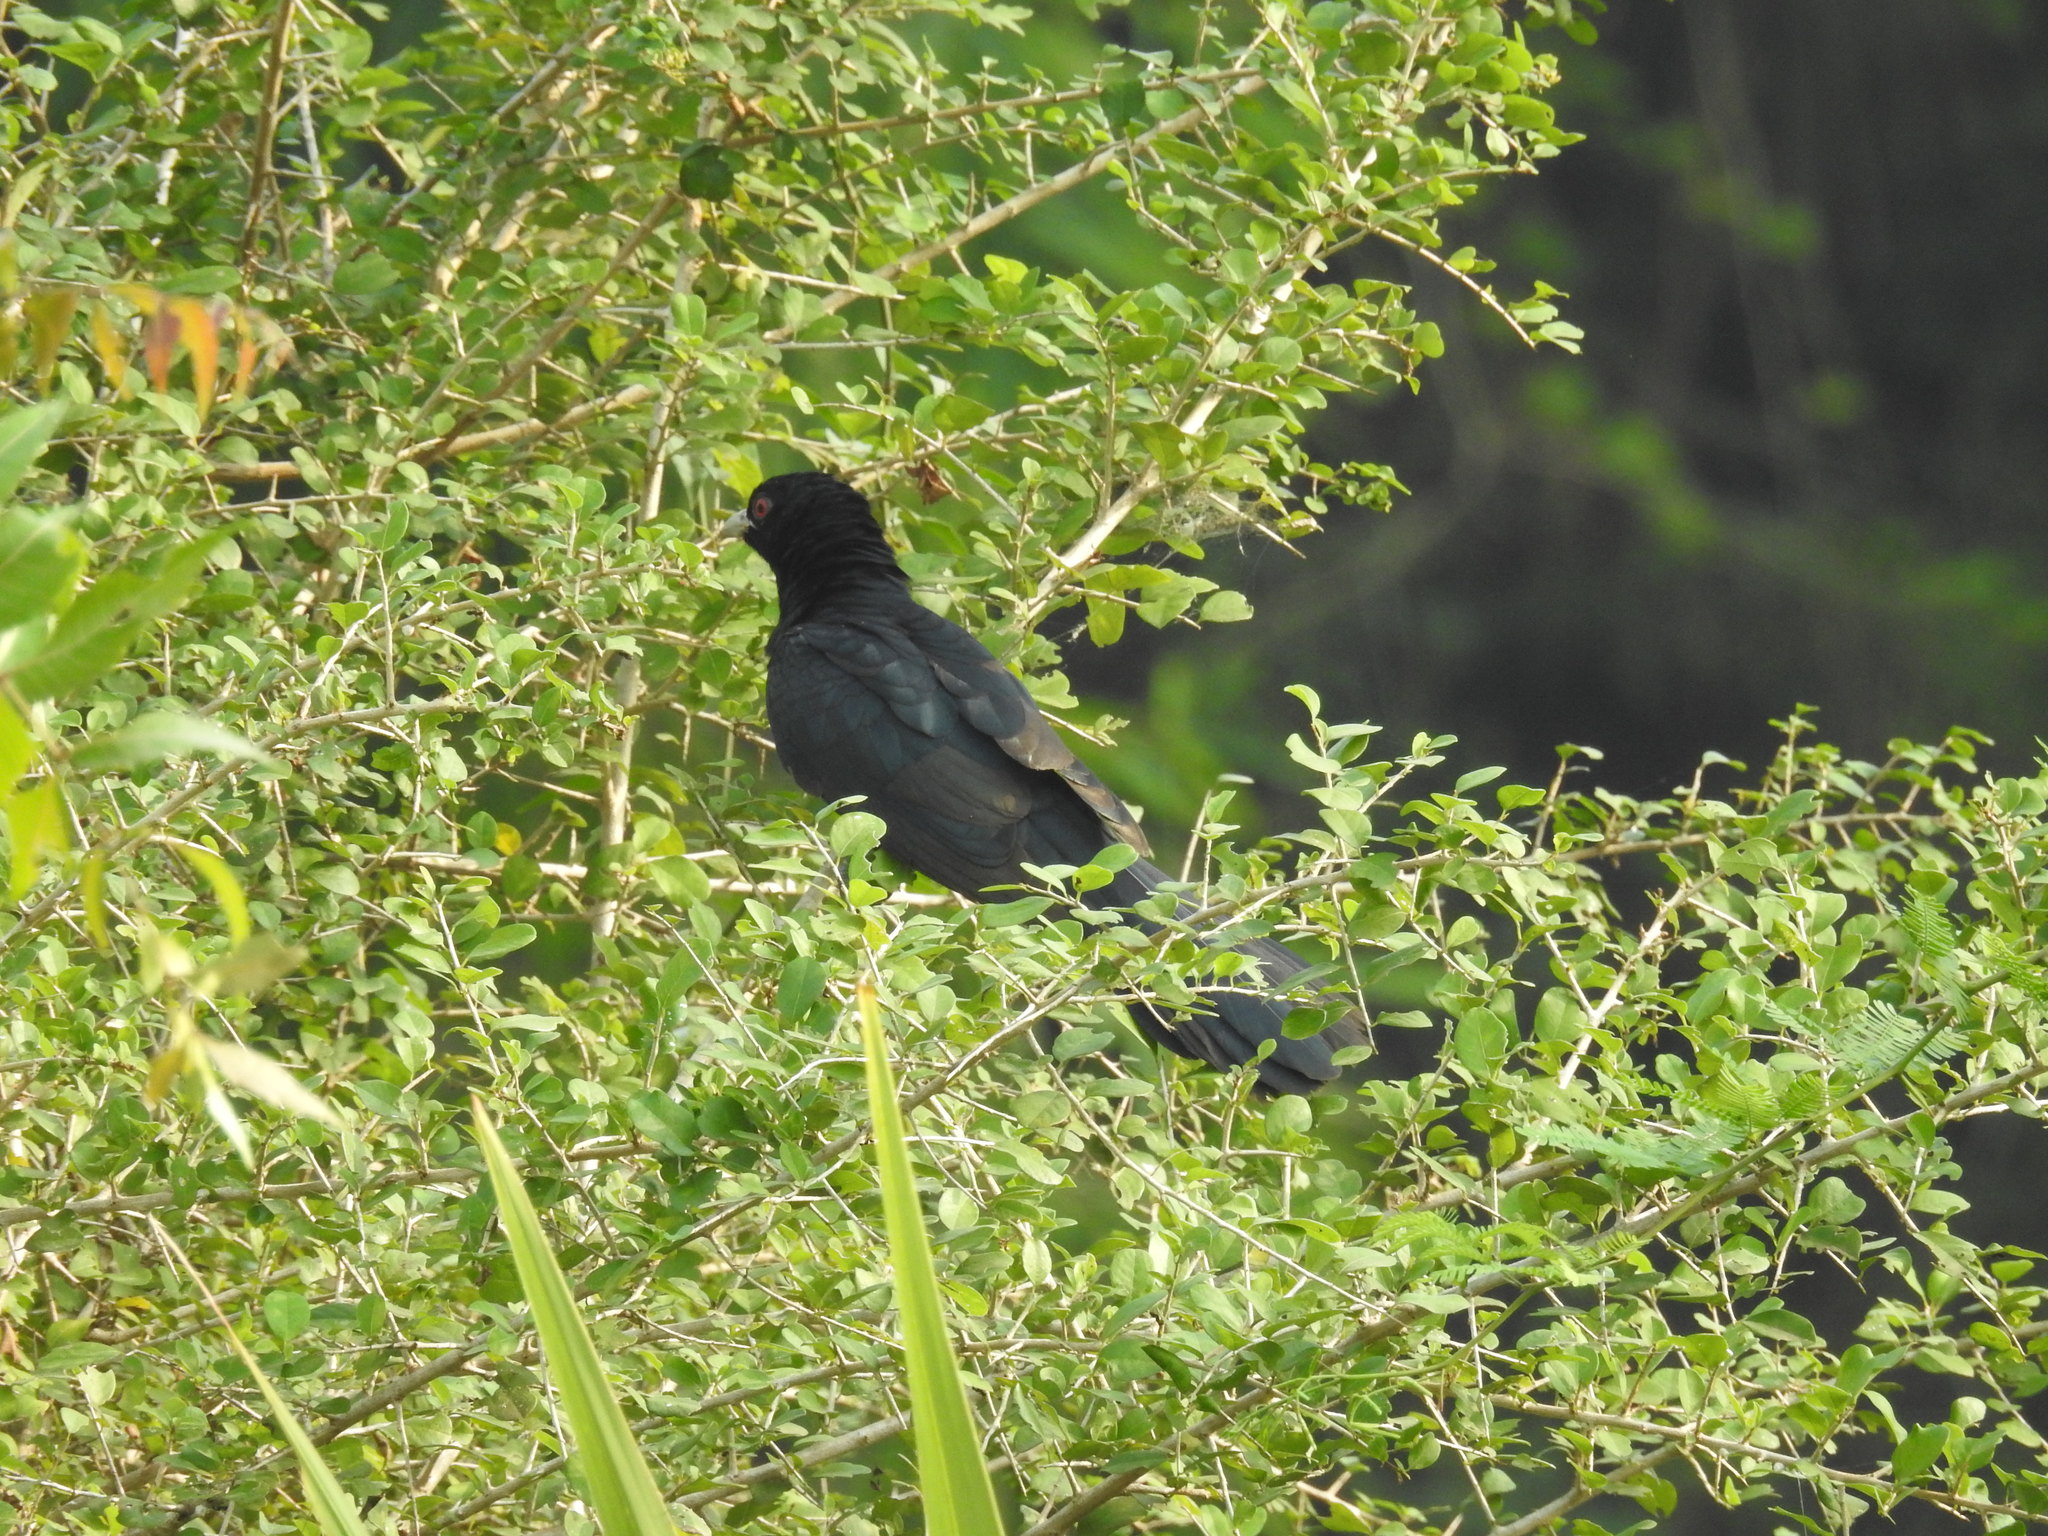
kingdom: Animalia
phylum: Chordata
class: Aves
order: Cuculiformes
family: Cuculidae
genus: Eudynamys
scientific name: Eudynamys scolopaceus
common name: Asian koel
